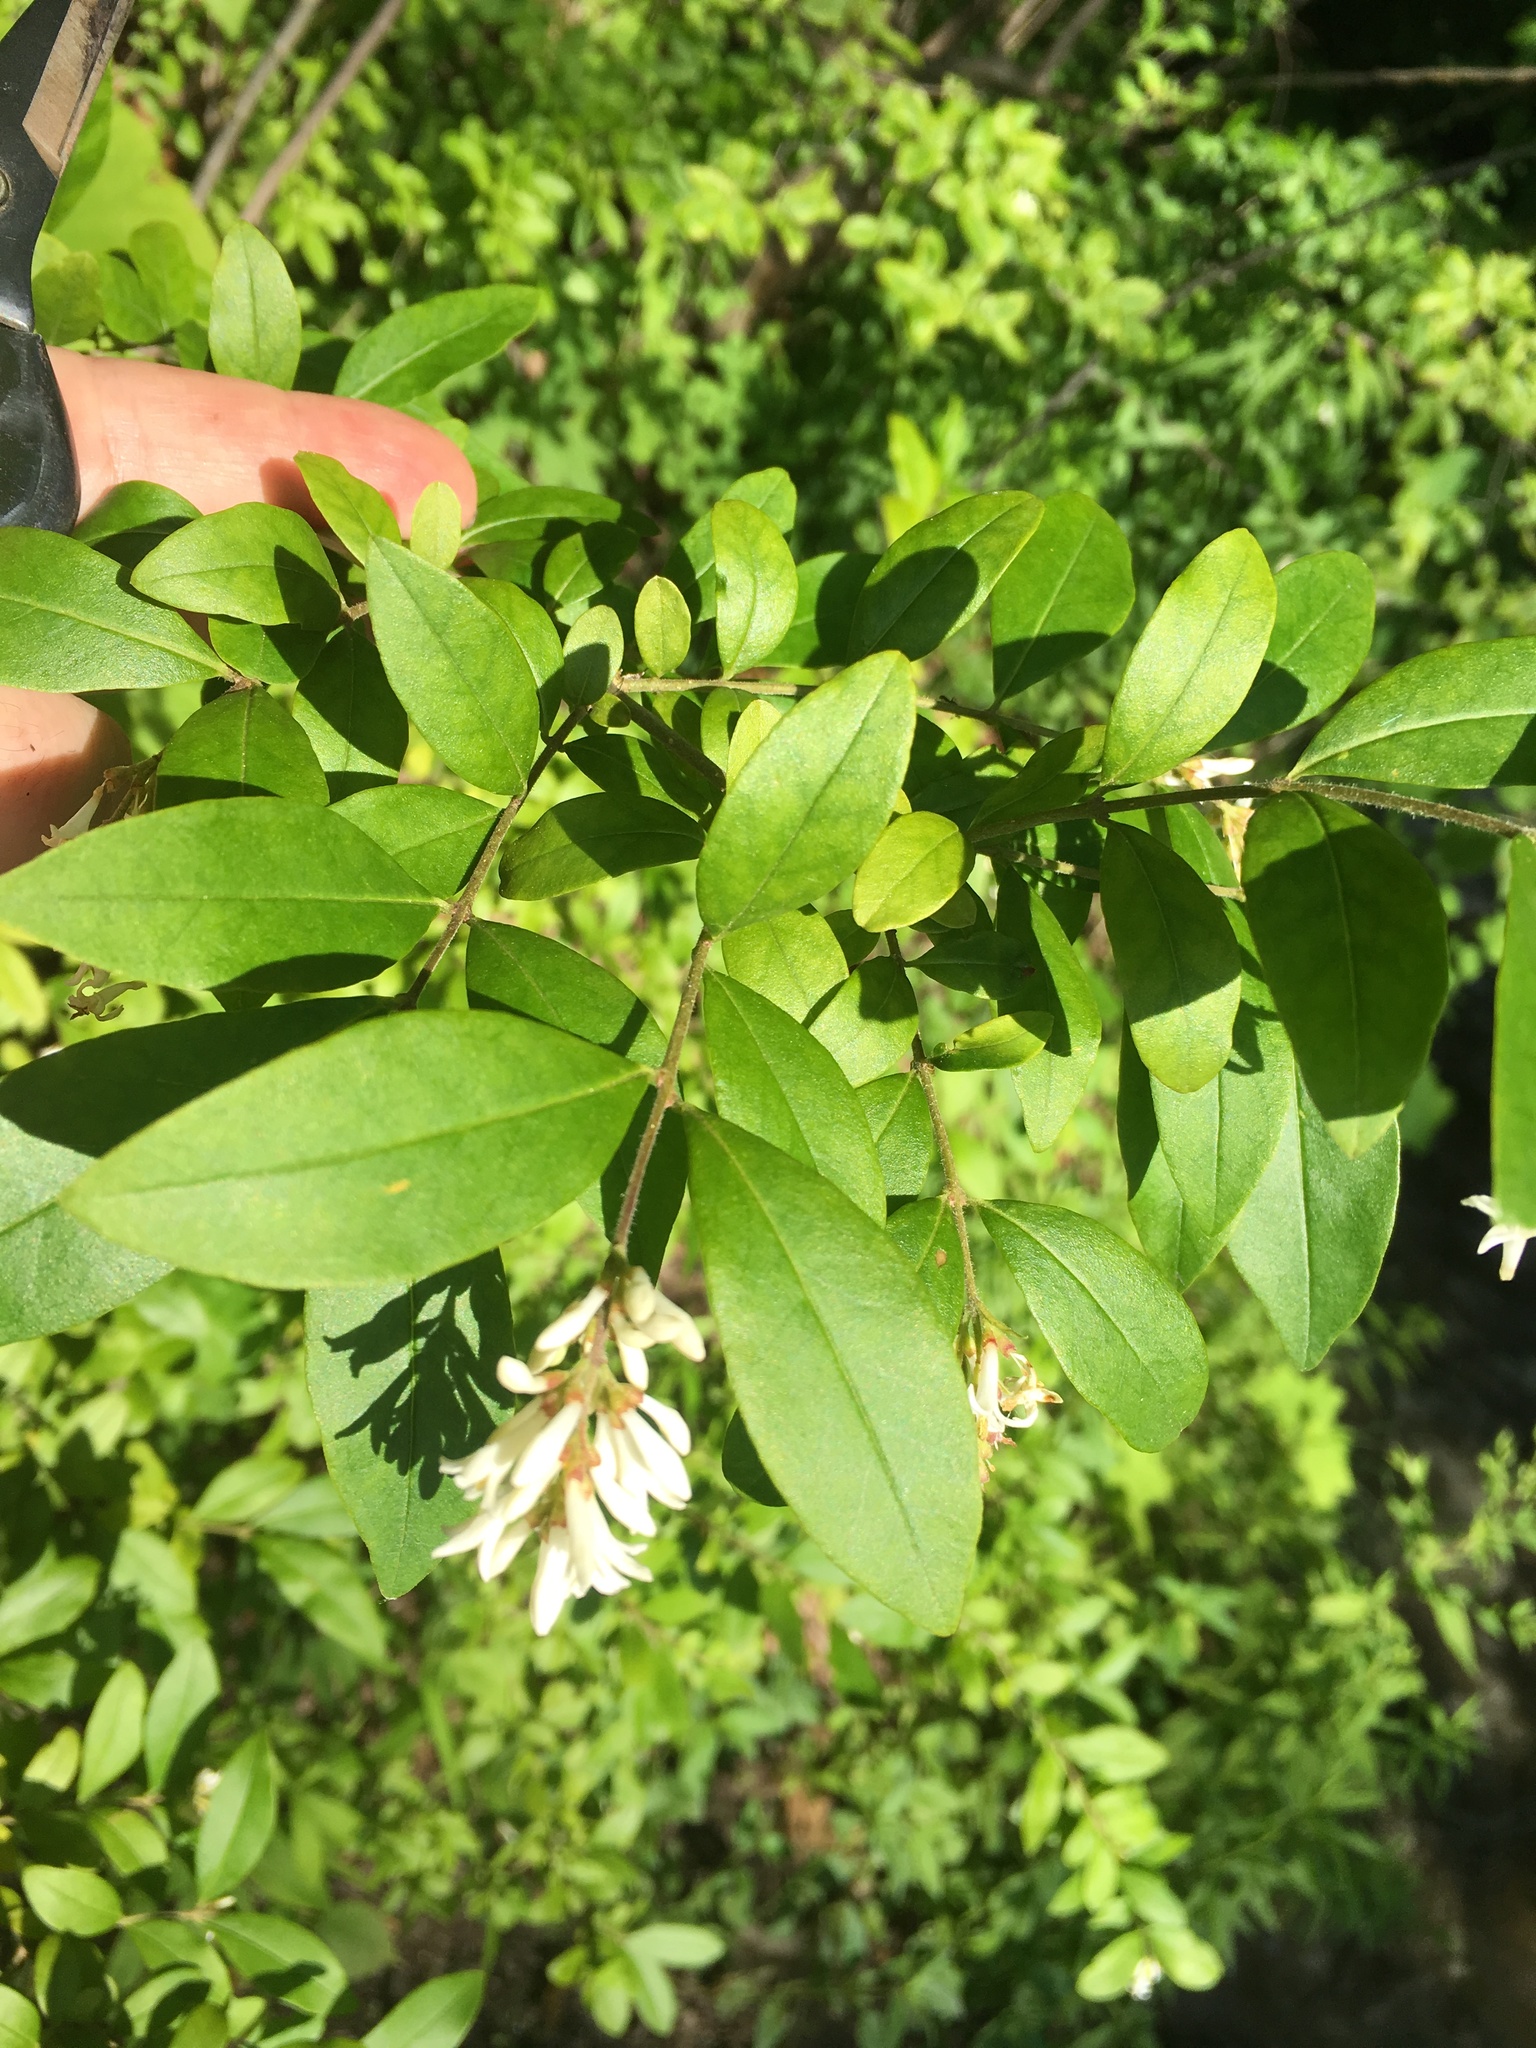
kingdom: Plantae
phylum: Tracheophyta
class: Magnoliopsida
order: Lamiales
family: Oleaceae
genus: Ligustrum
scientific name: Ligustrum obtusifolium
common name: Border privet
